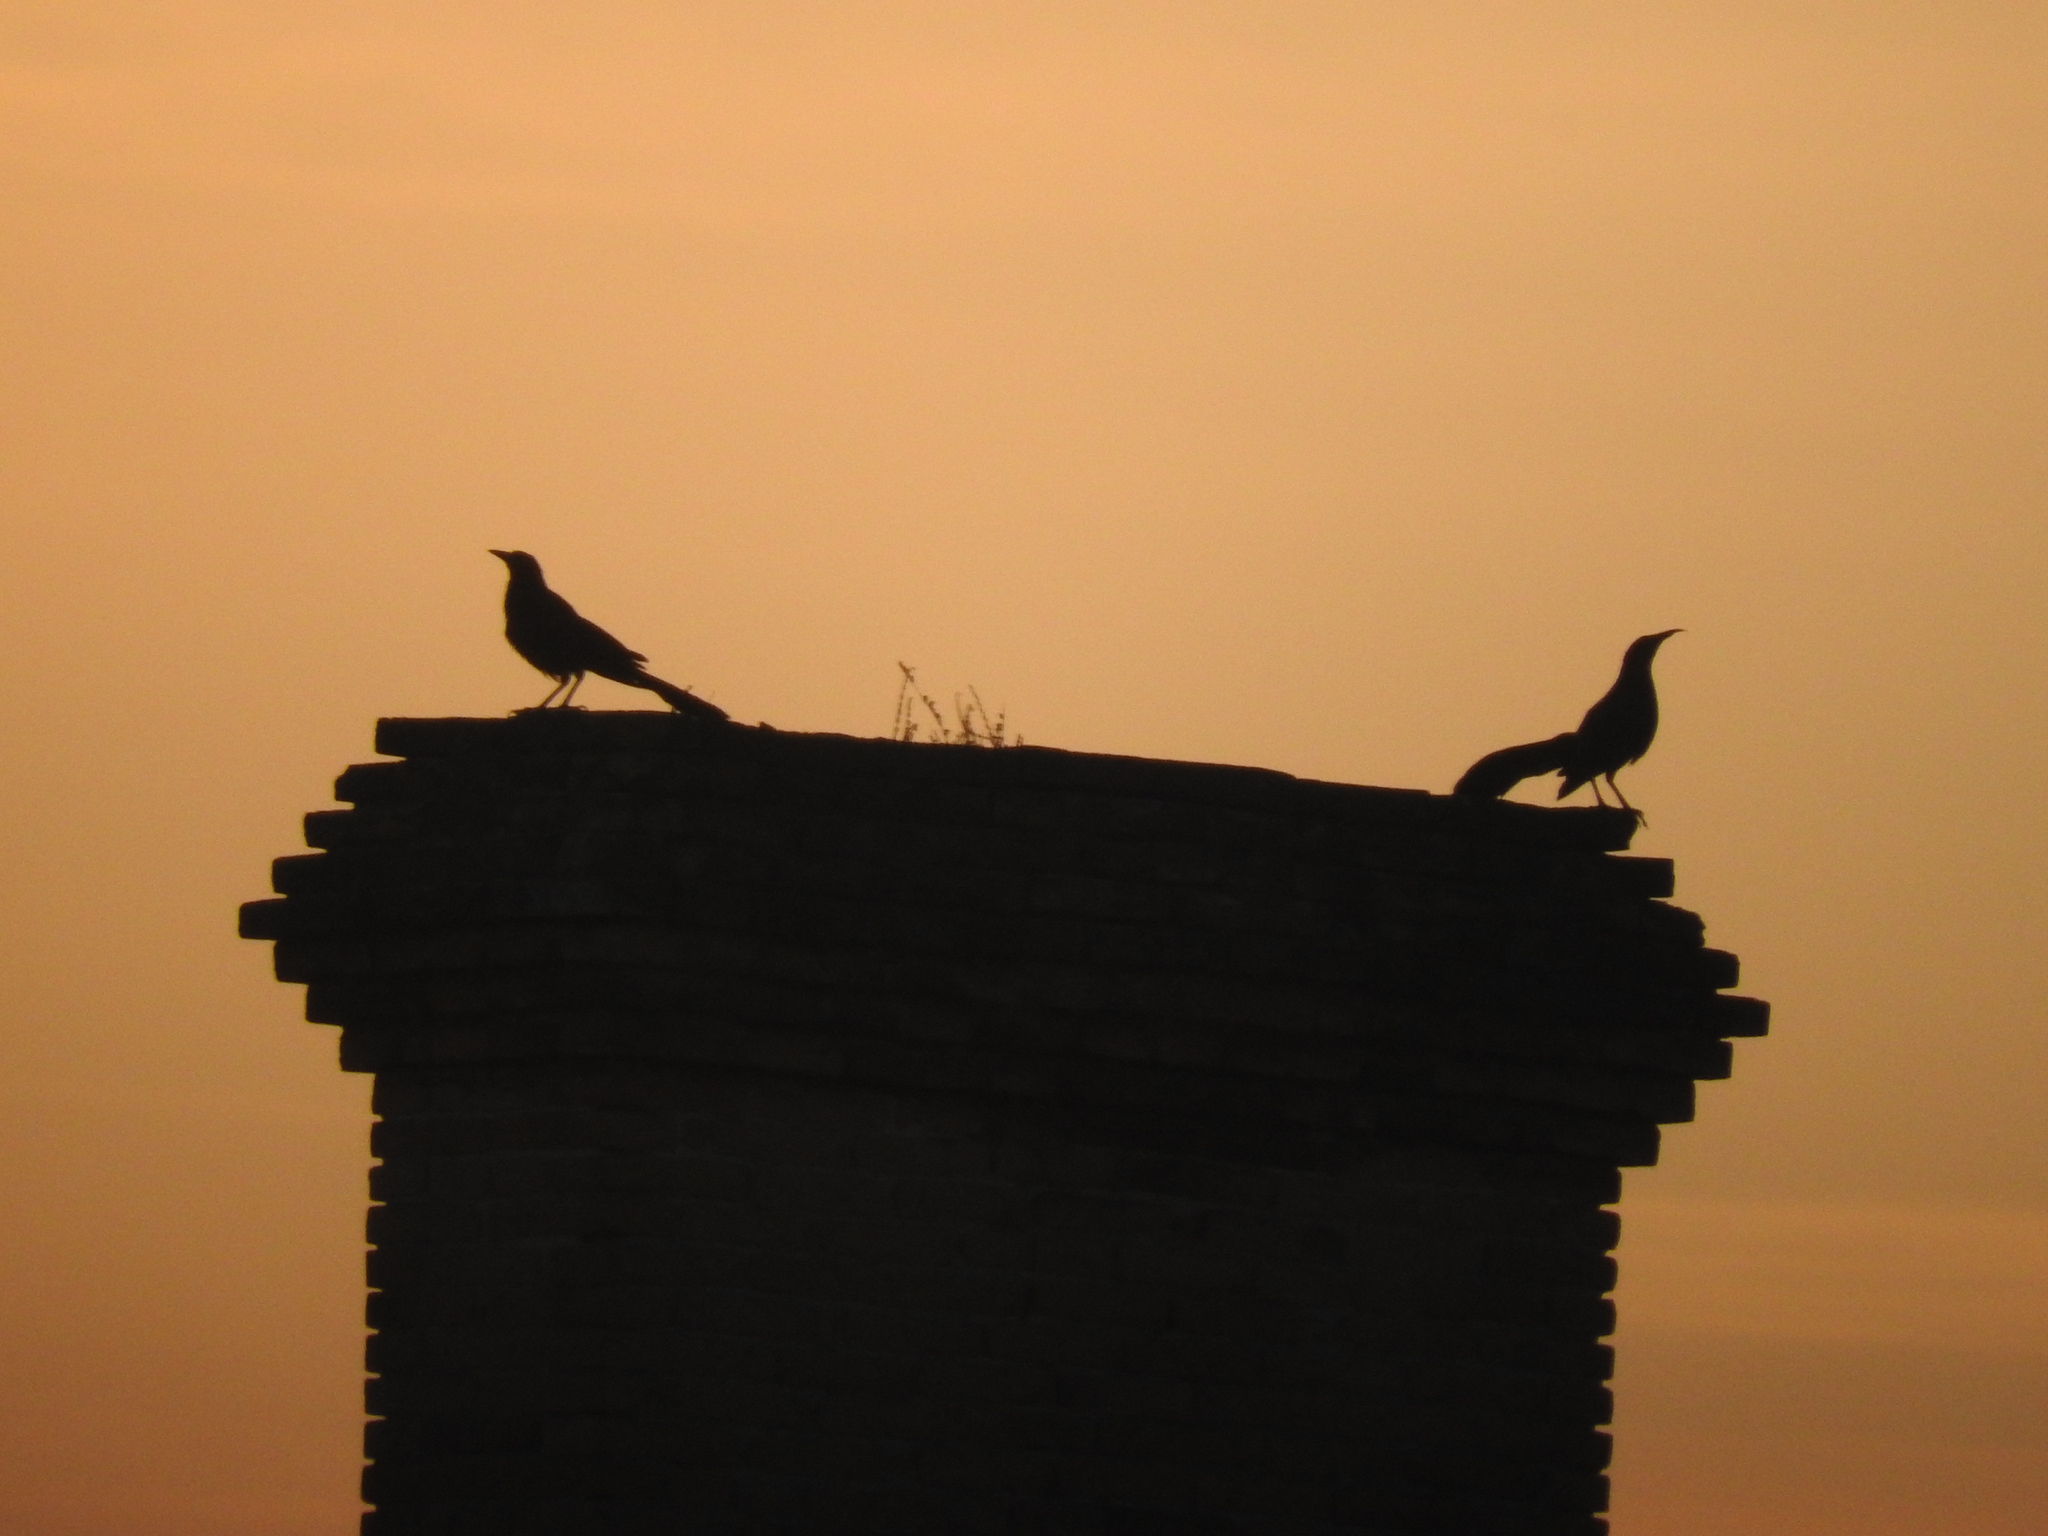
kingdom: Animalia
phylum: Chordata
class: Aves
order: Passeriformes
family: Icteridae
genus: Quiscalus
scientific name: Quiscalus mexicanus
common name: Great-tailed grackle
